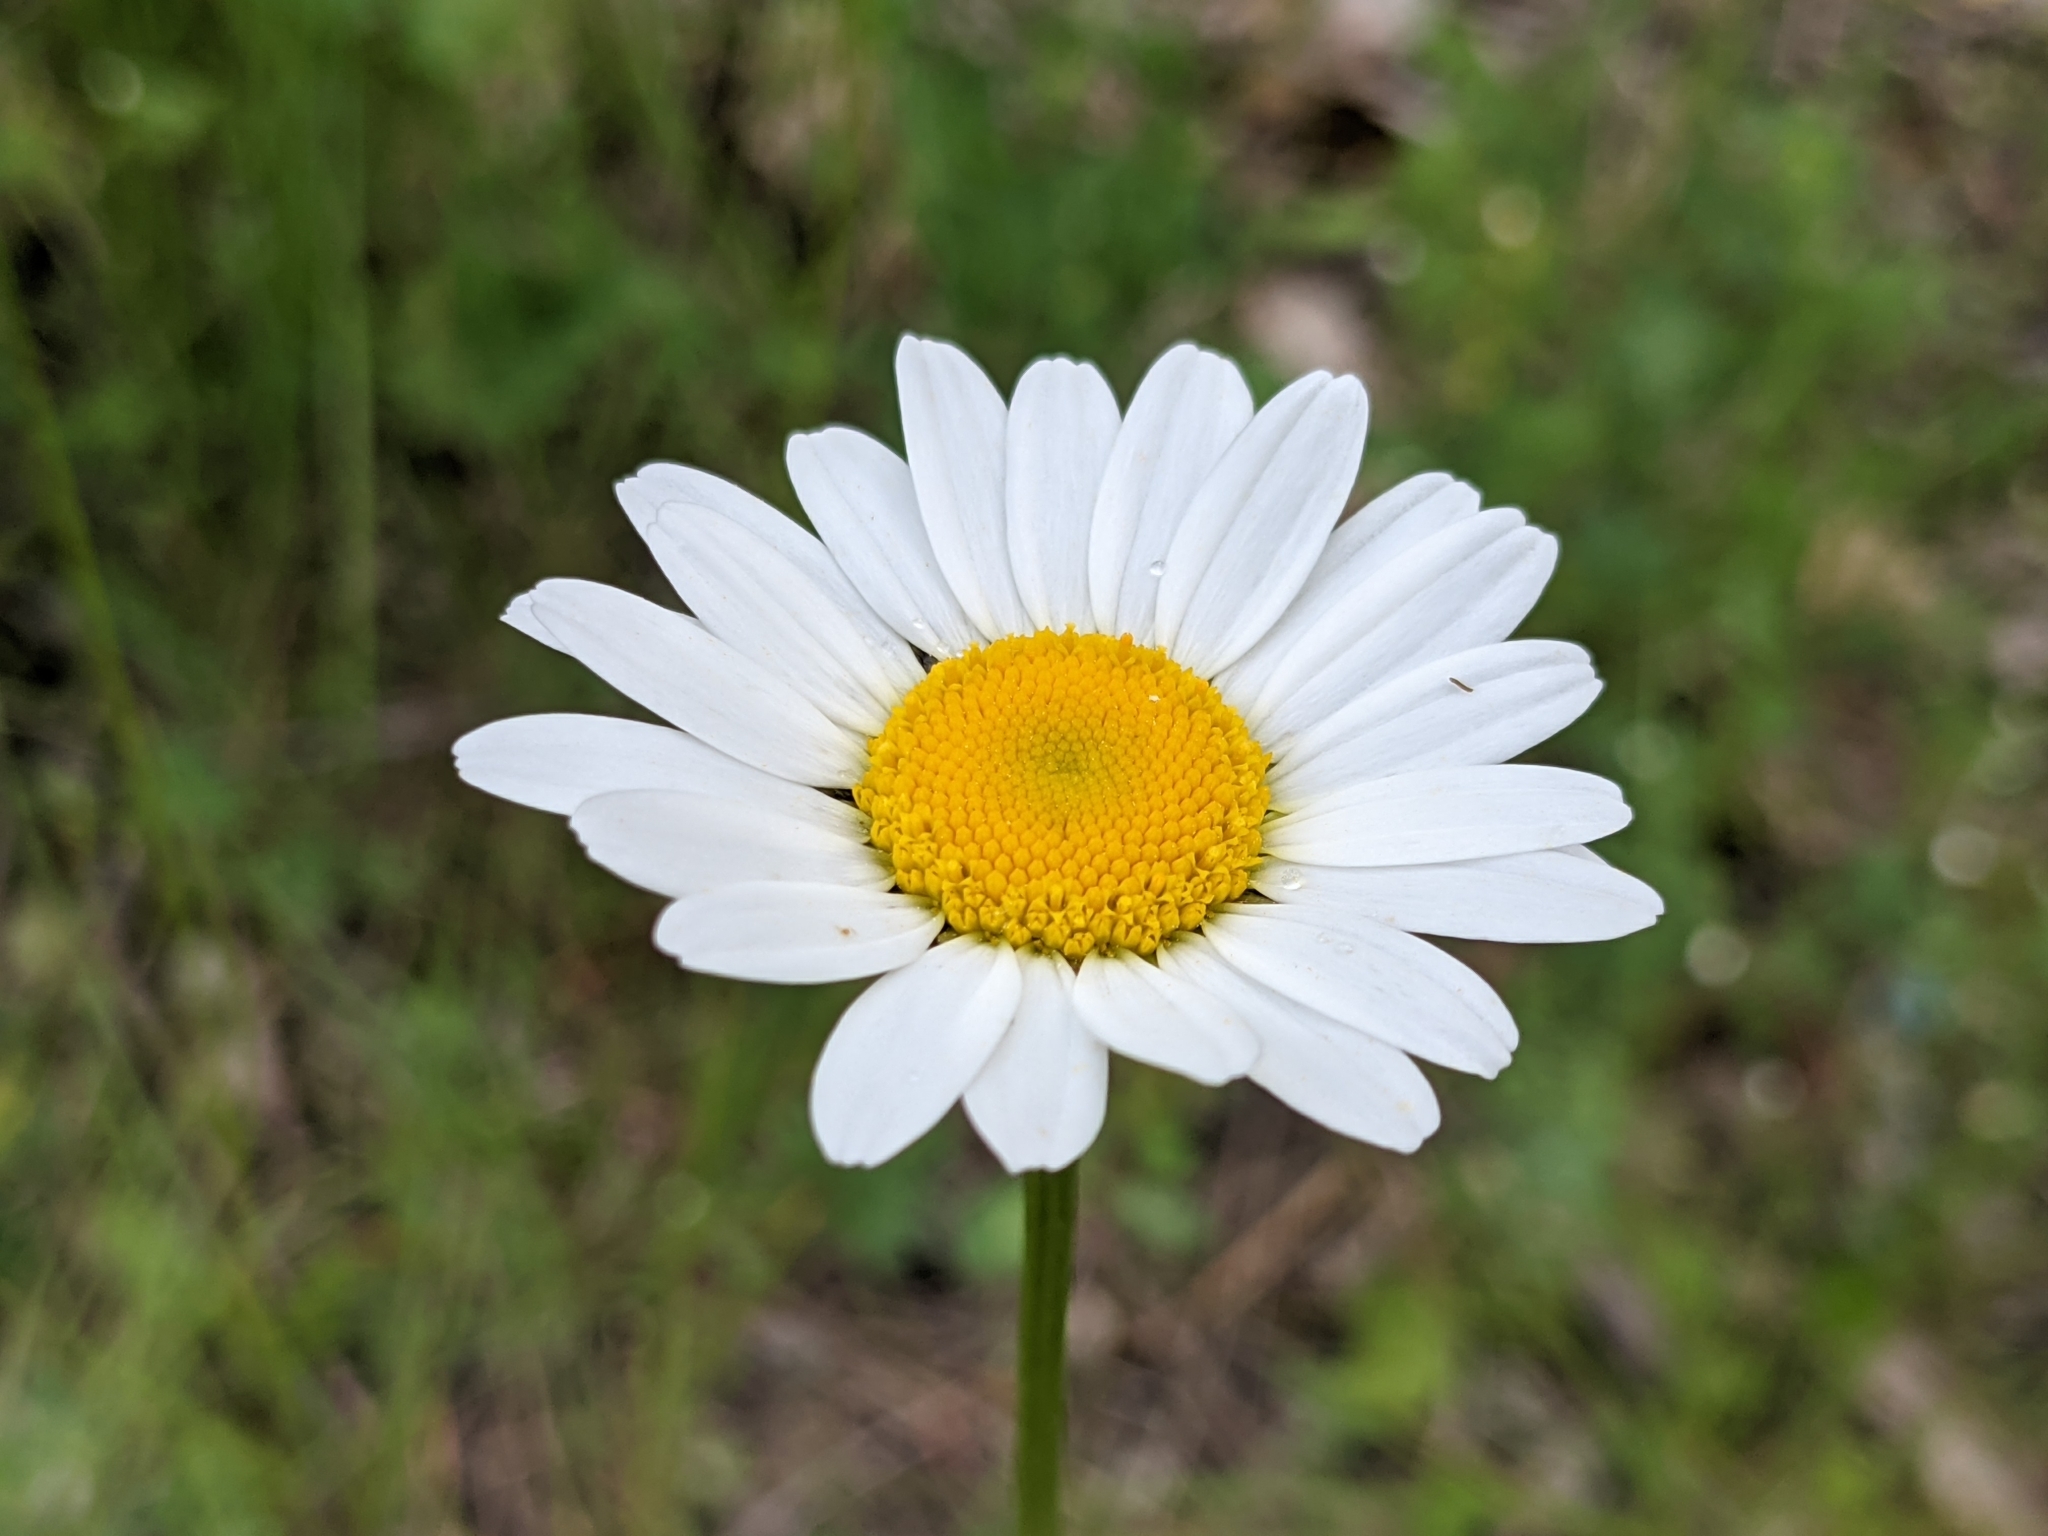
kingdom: Plantae
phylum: Tracheophyta
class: Magnoliopsida
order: Asterales
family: Asteraceae
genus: Leucanthemum
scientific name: Leucanthemum vulgare
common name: Oxeye daisy
